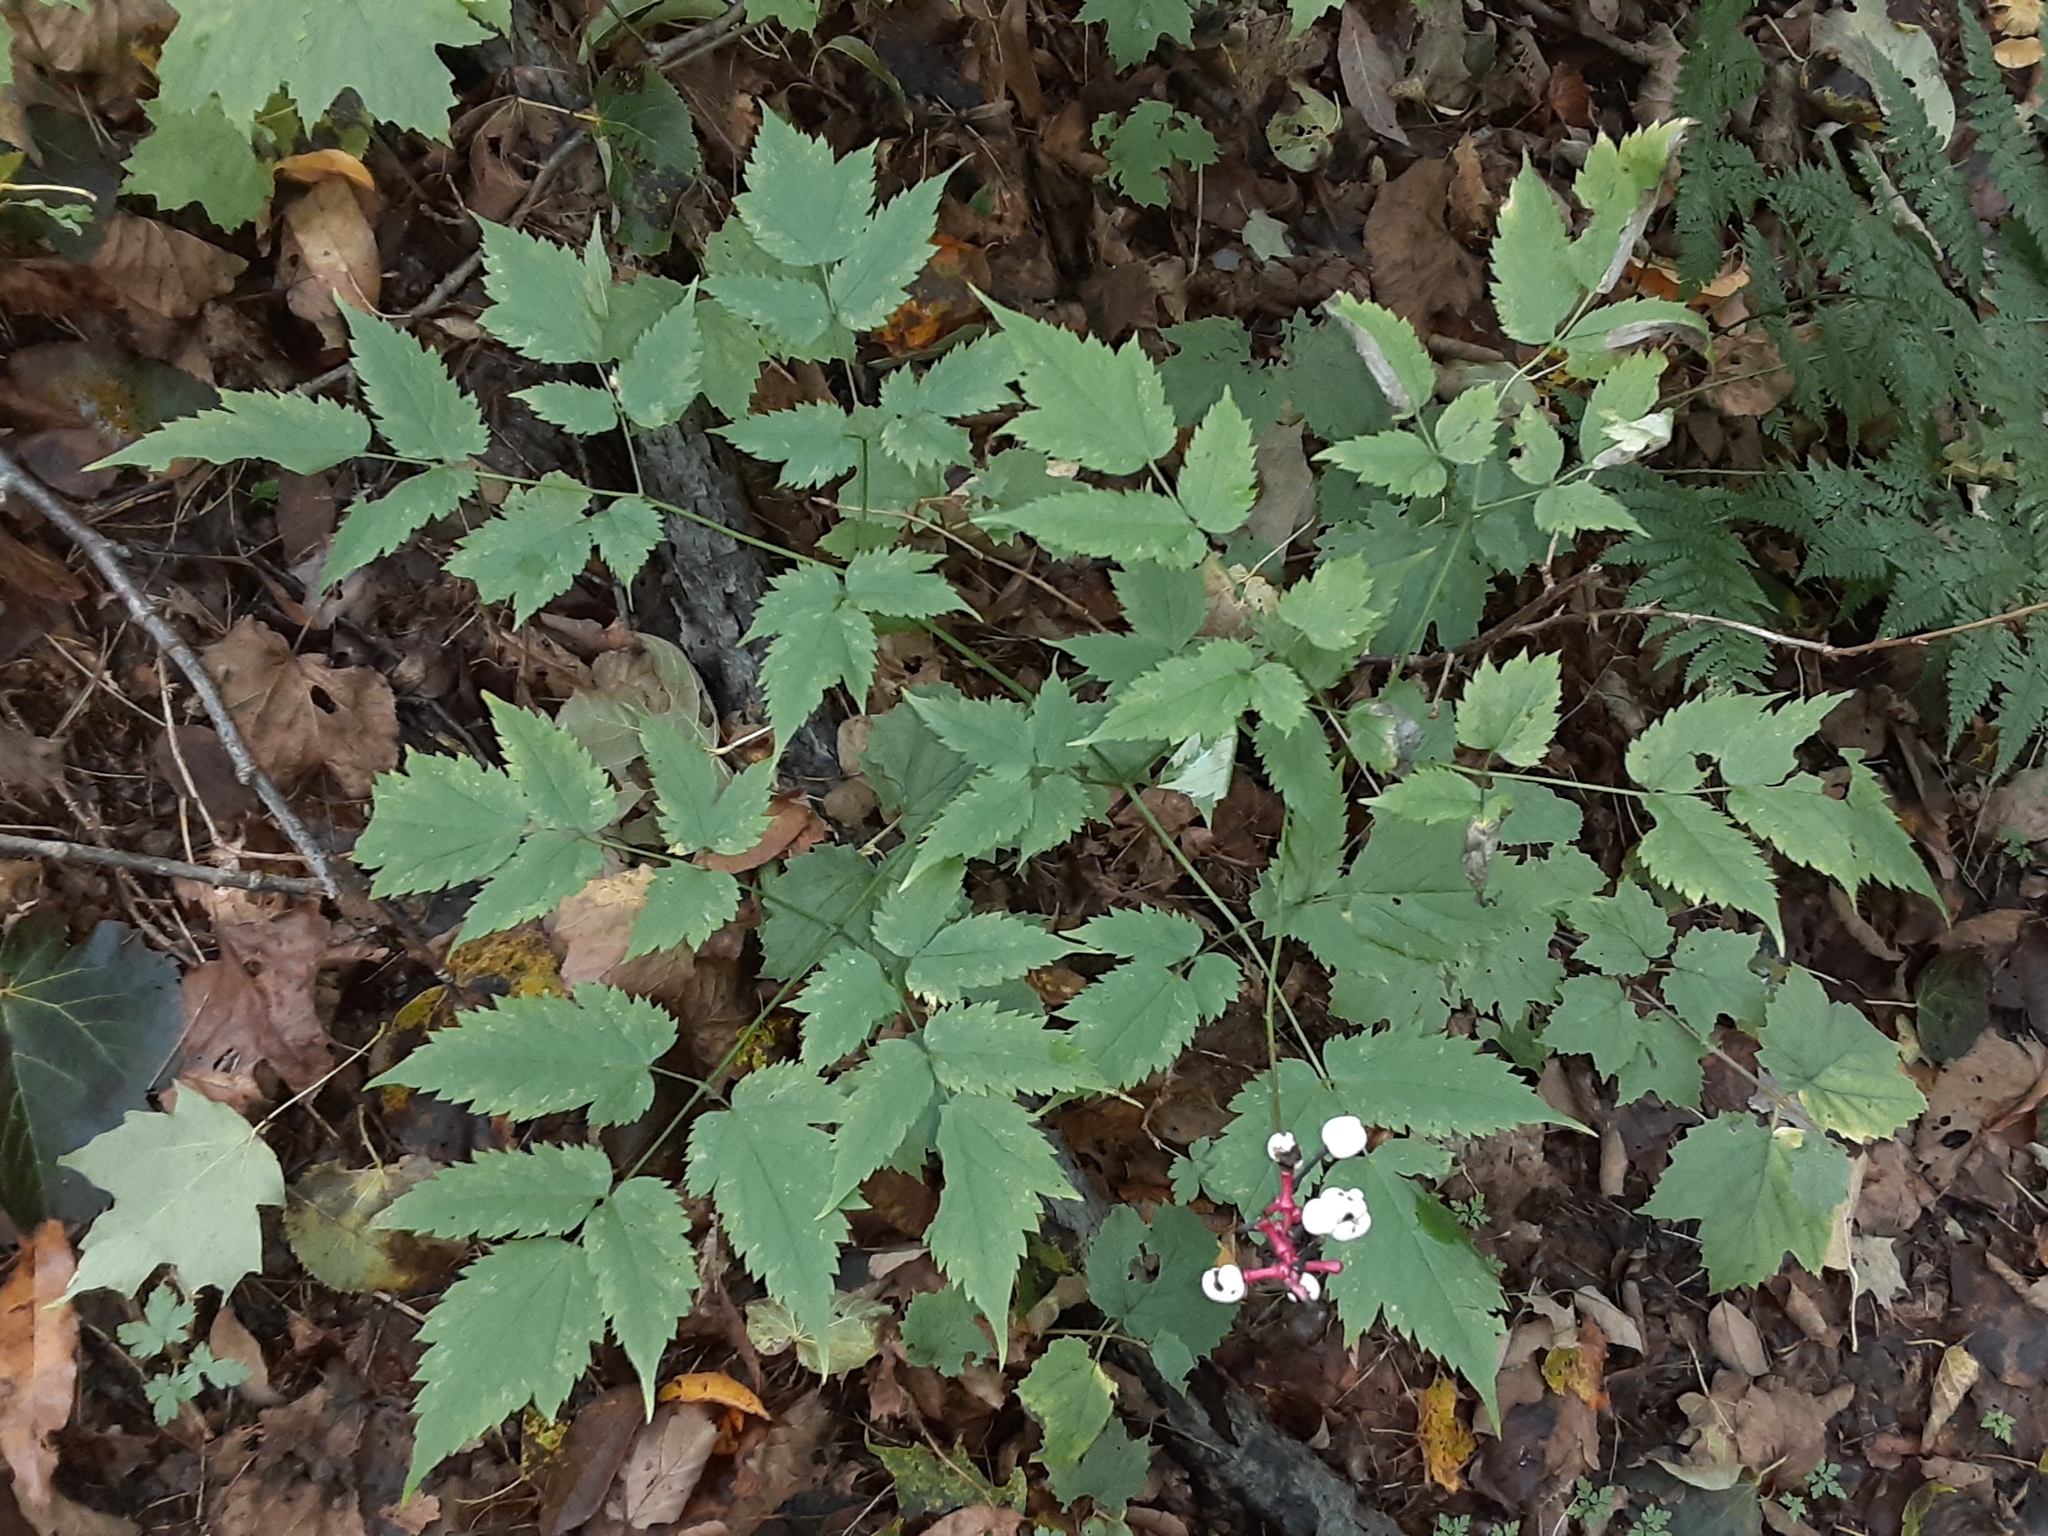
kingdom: Plantae
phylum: Tracheophyta
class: Magnoliopsida
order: Ranunculales
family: Ranunculaceae
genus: Actaea
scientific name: Actaea pachypoda
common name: Doll's-eyes
